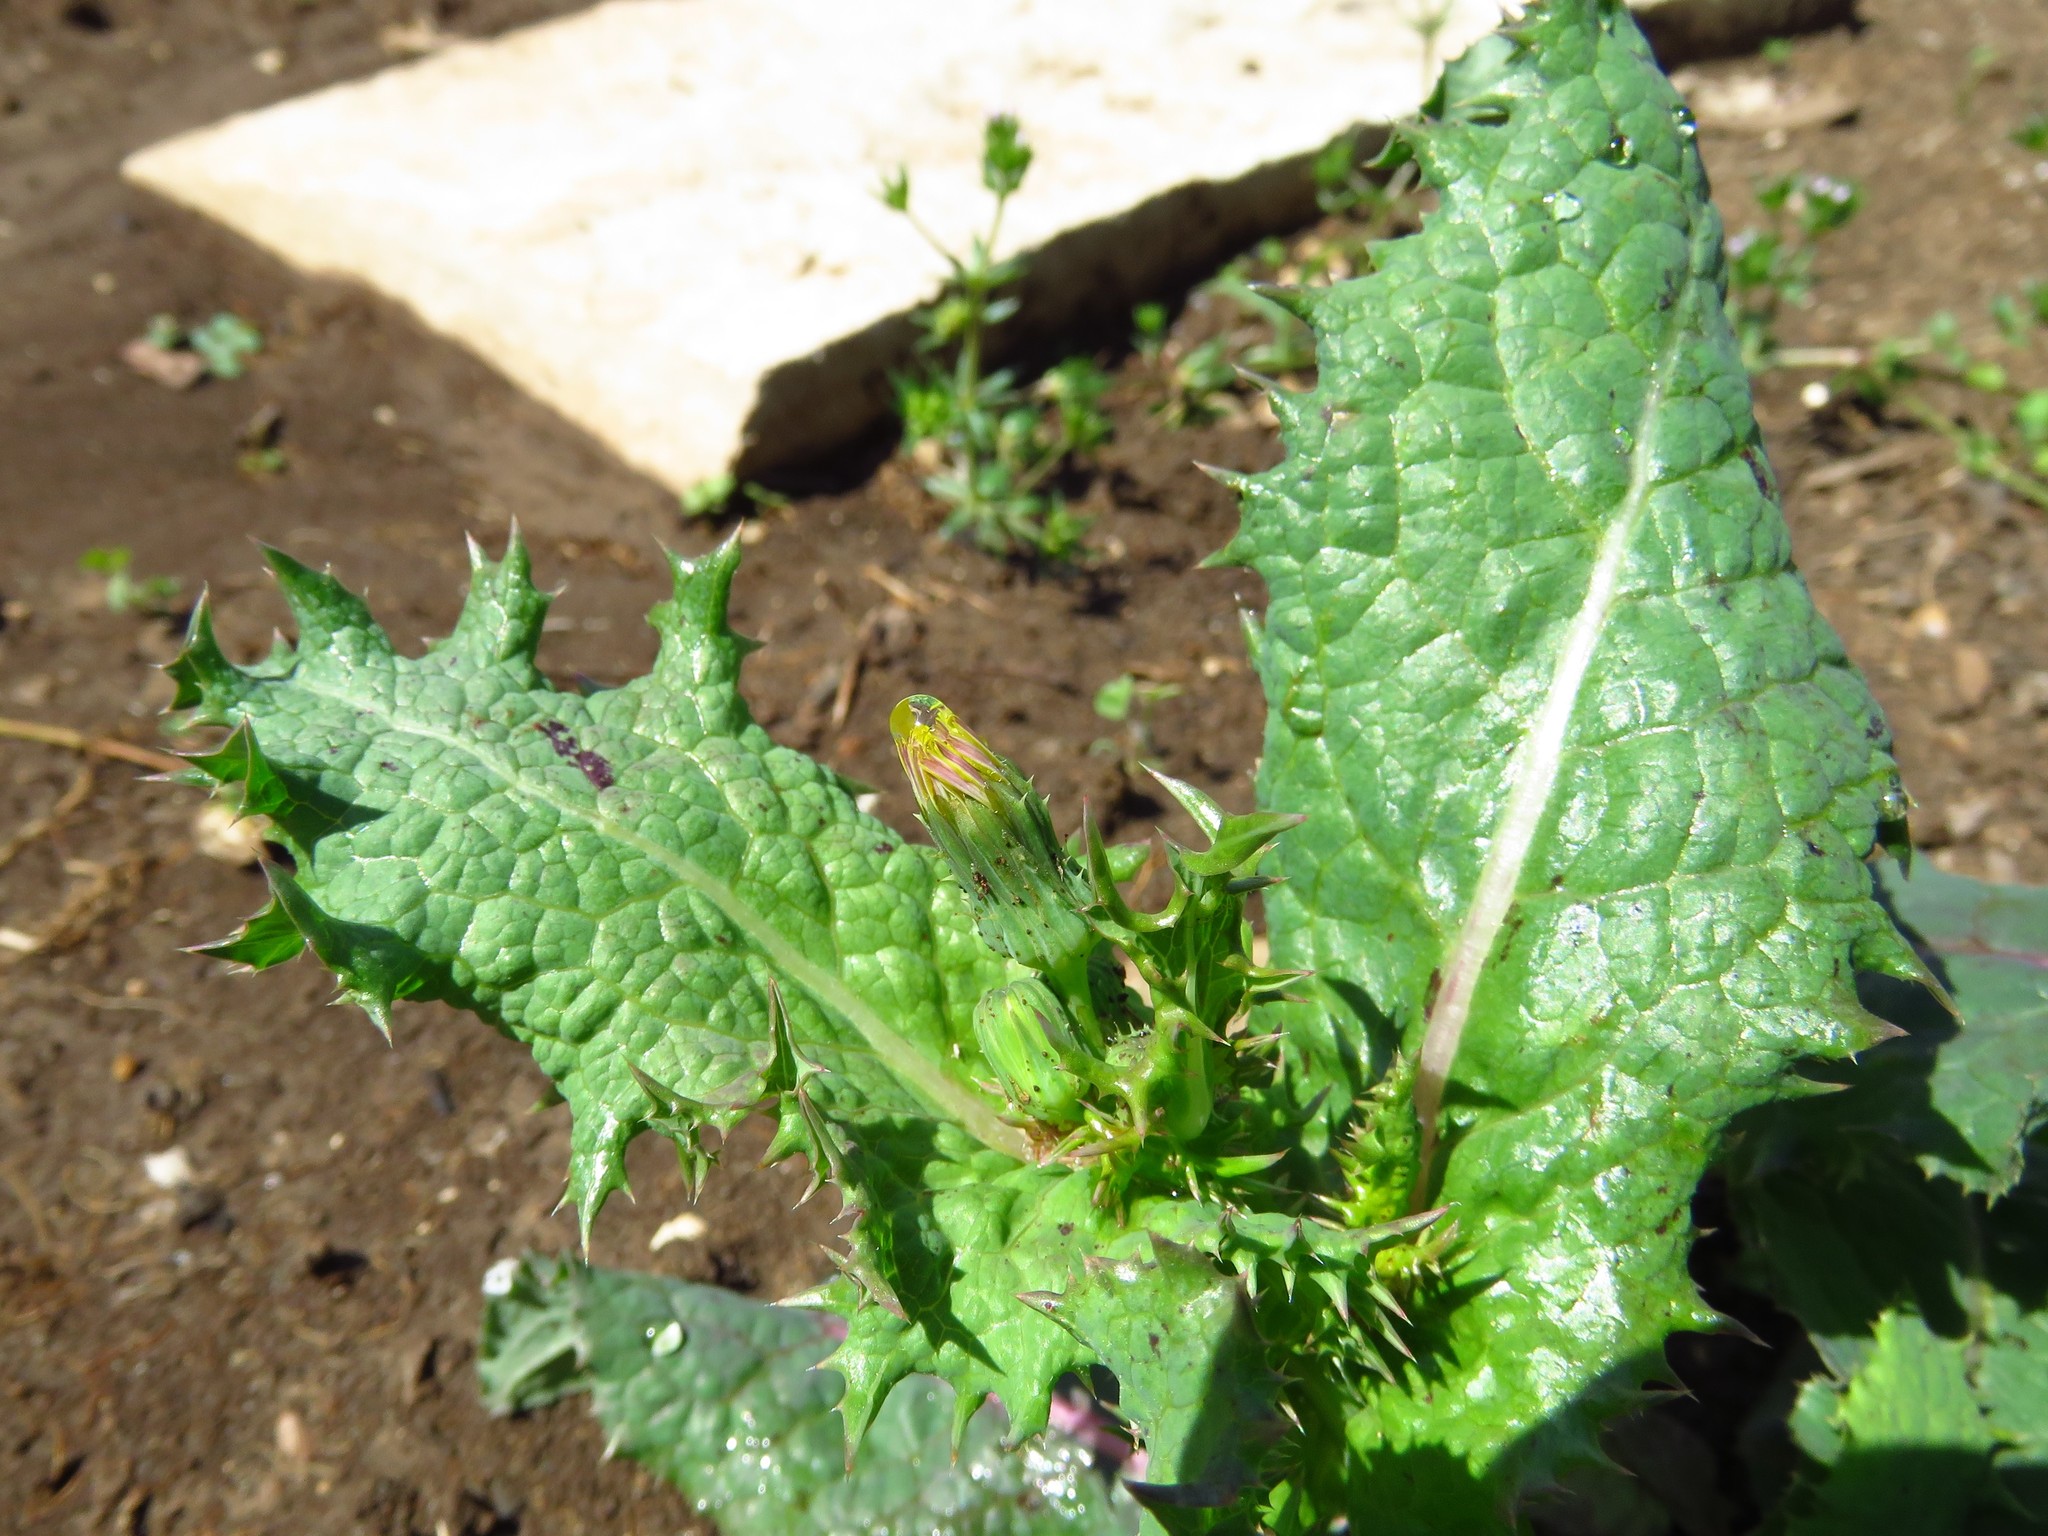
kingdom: Plantae
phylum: Tracheophyta
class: Magnoliopsida
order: Asterales
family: Asteraceae
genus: Sonchus
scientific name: Sonchus asper
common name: Prickly sow-thistle
